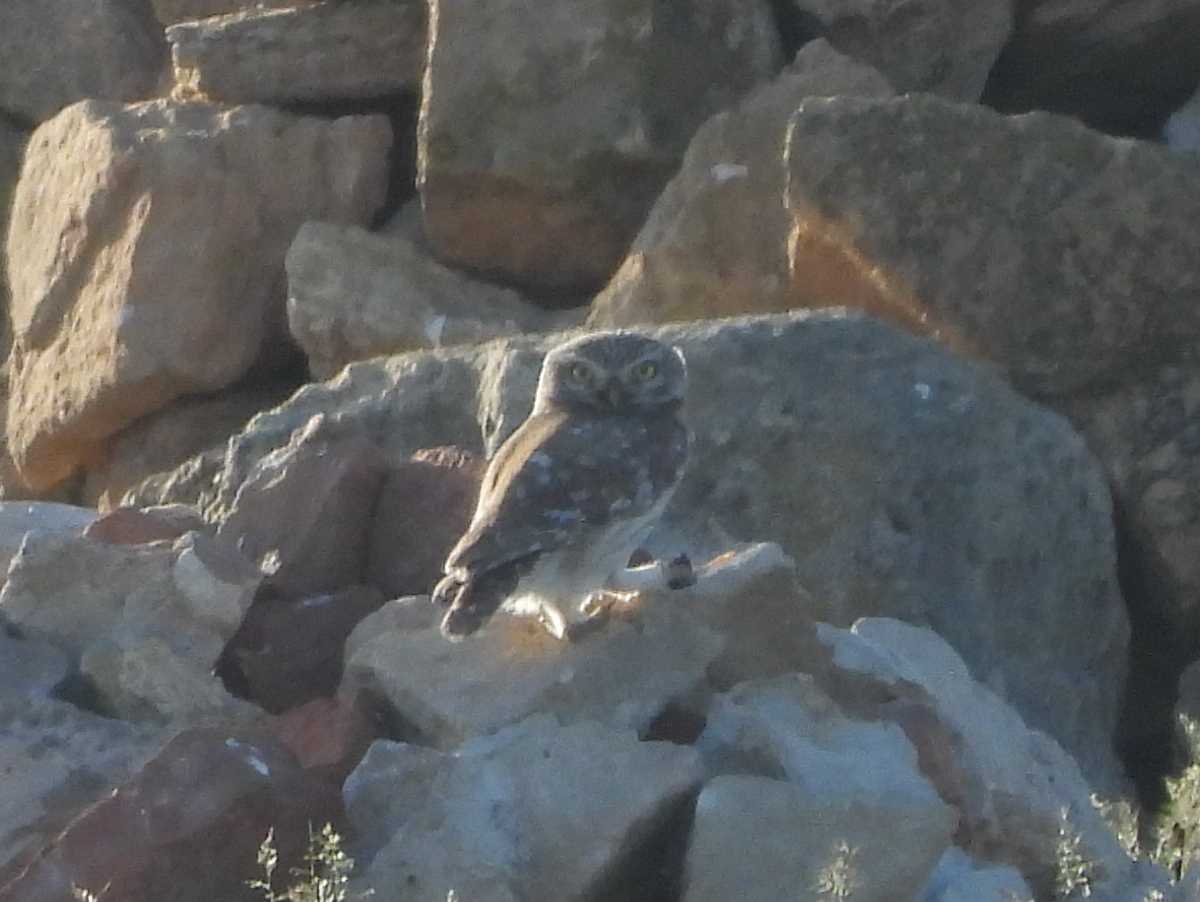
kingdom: Animalia
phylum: Chordata
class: Aves
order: Strigiformes
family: Strigidae
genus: Athene
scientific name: Athene noctua
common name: Little owl
